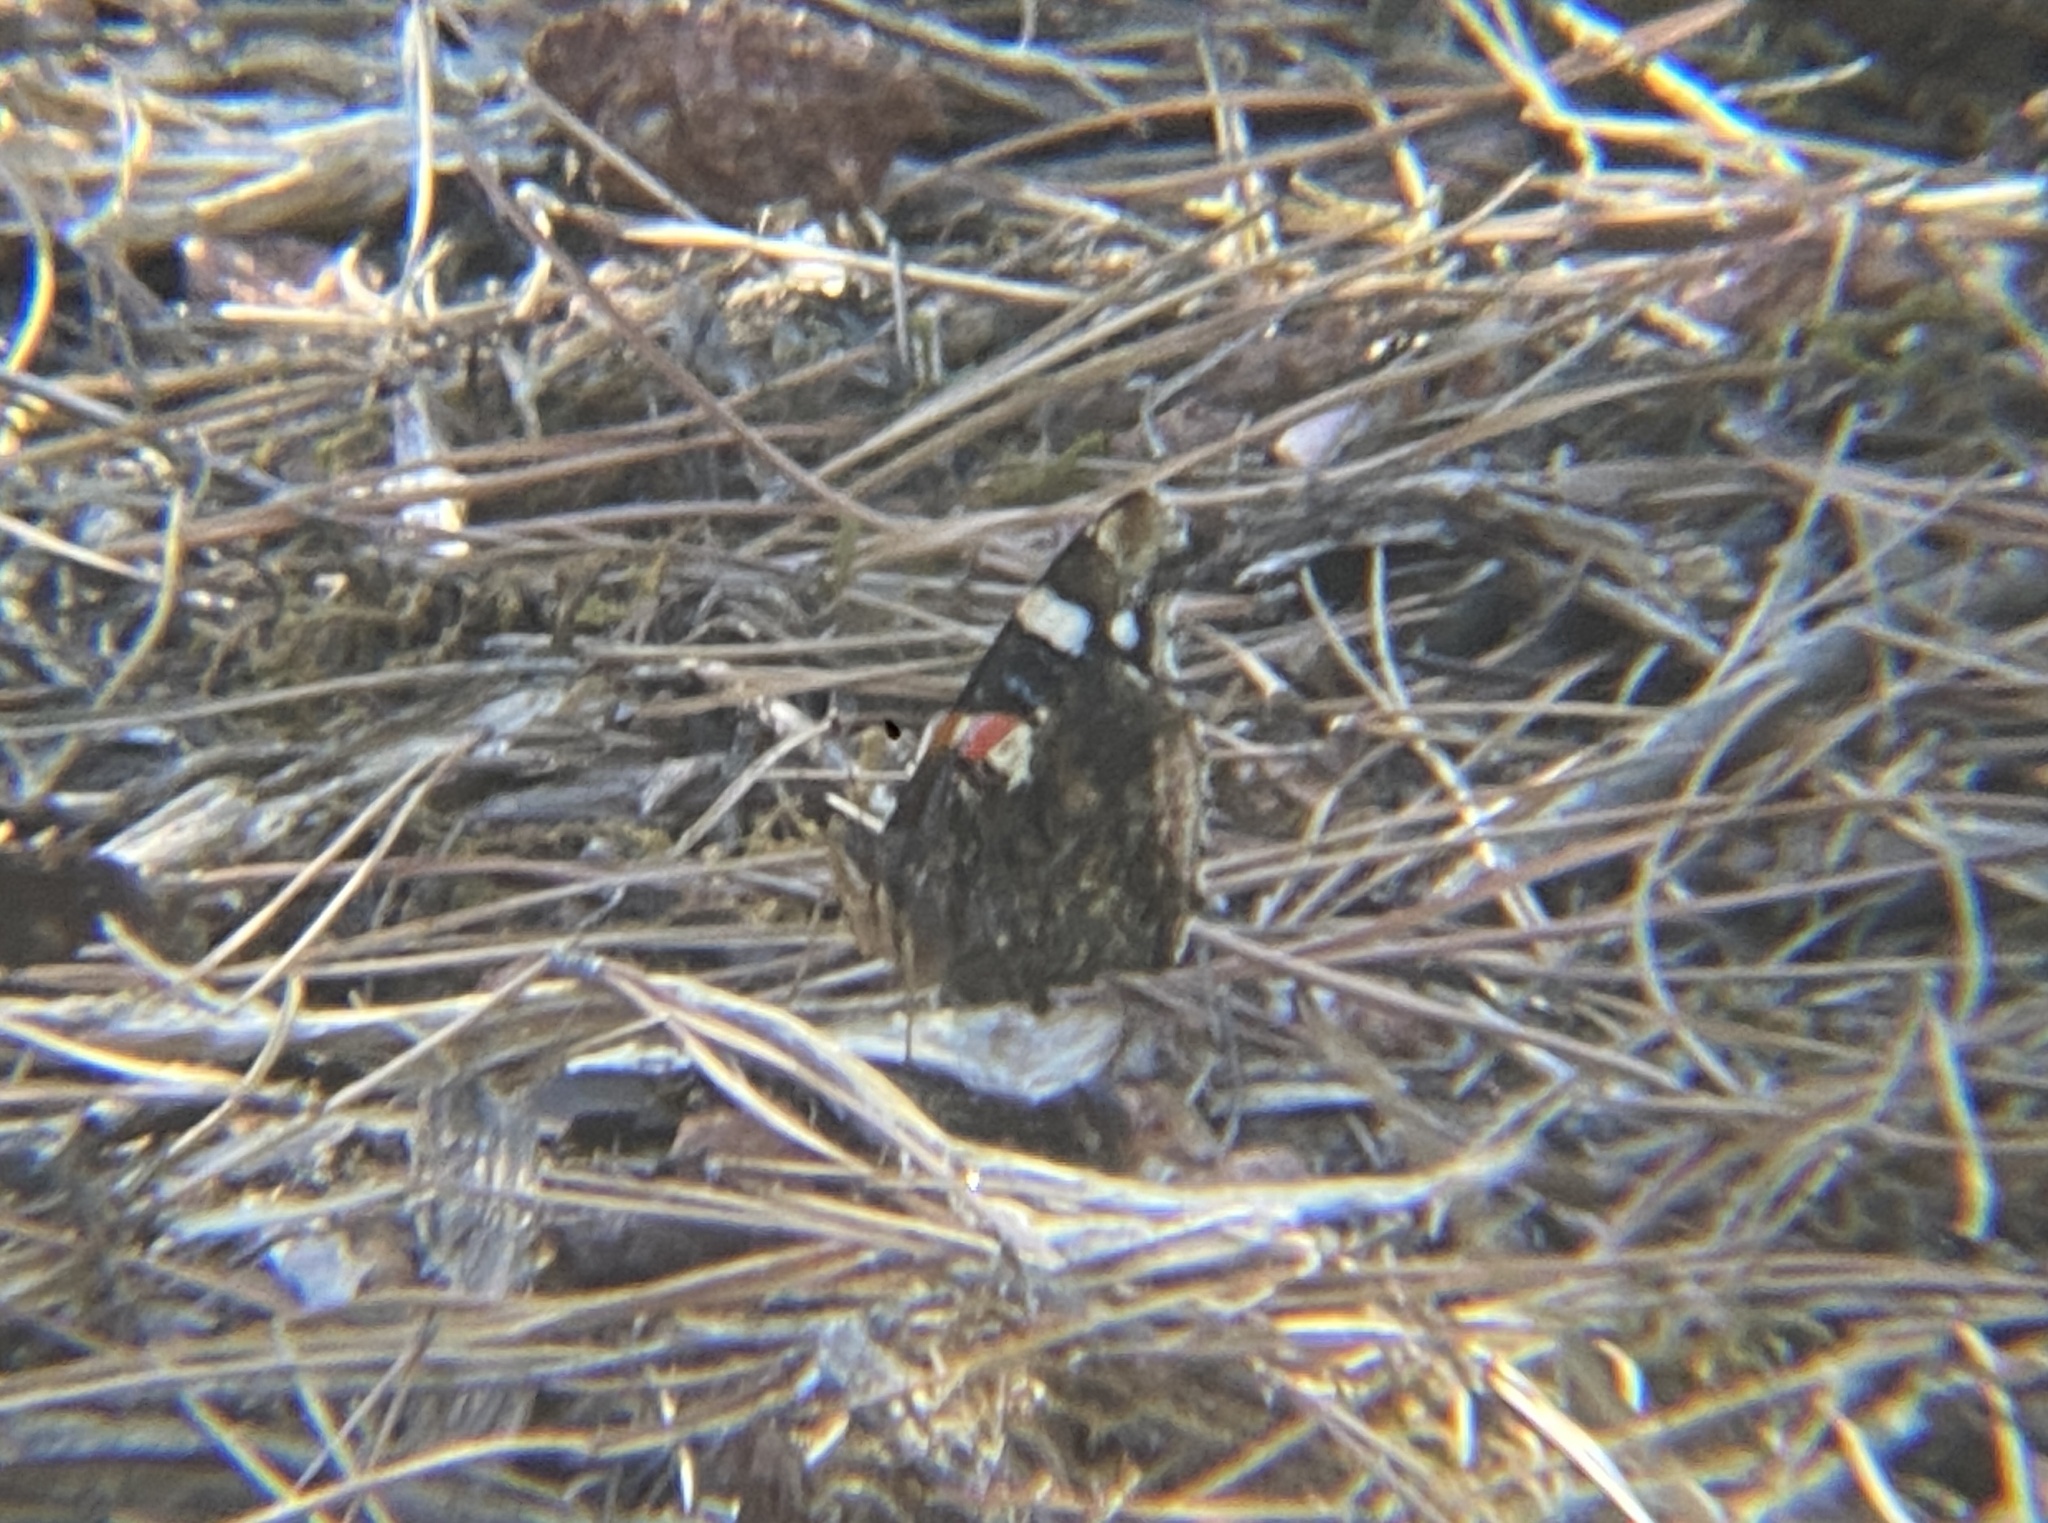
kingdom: Animalia
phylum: Arthropoda
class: Insecta
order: Lepidoptera
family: Nymphalidae
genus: Vanessa
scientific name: Vanessa atalanta
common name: Red admiral
